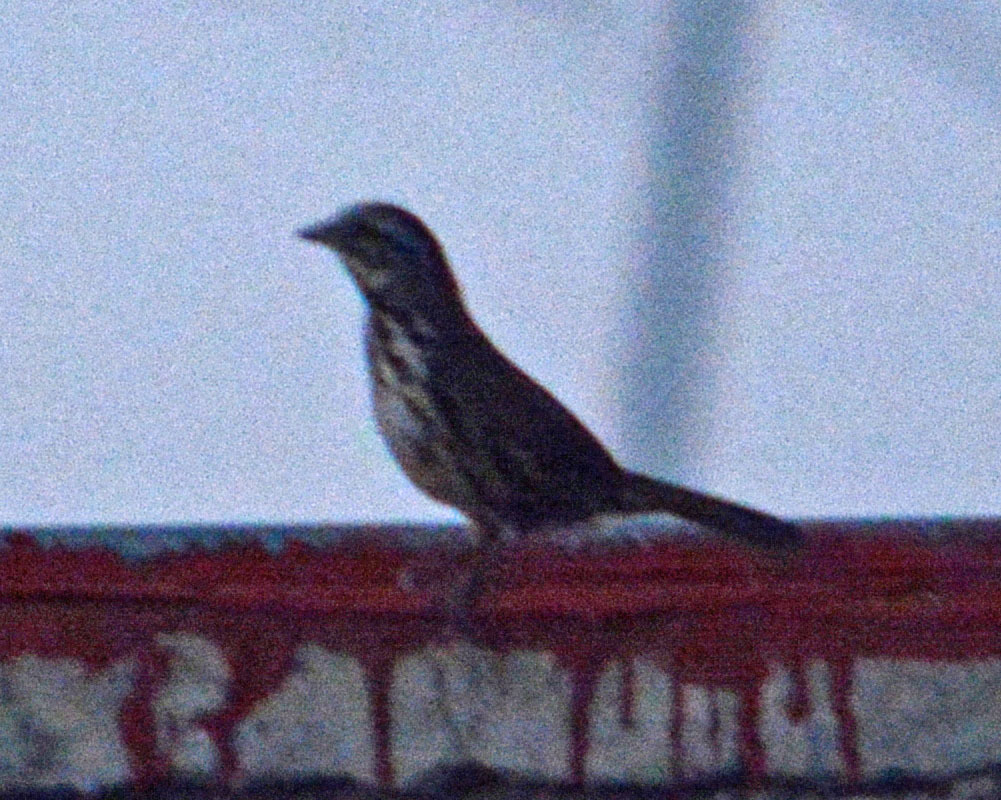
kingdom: Animalia
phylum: Chordata
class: Aves
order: Passeriformes
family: Passerellidae
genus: Melospiza
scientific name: Melospiza melodia
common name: Song sparrow
